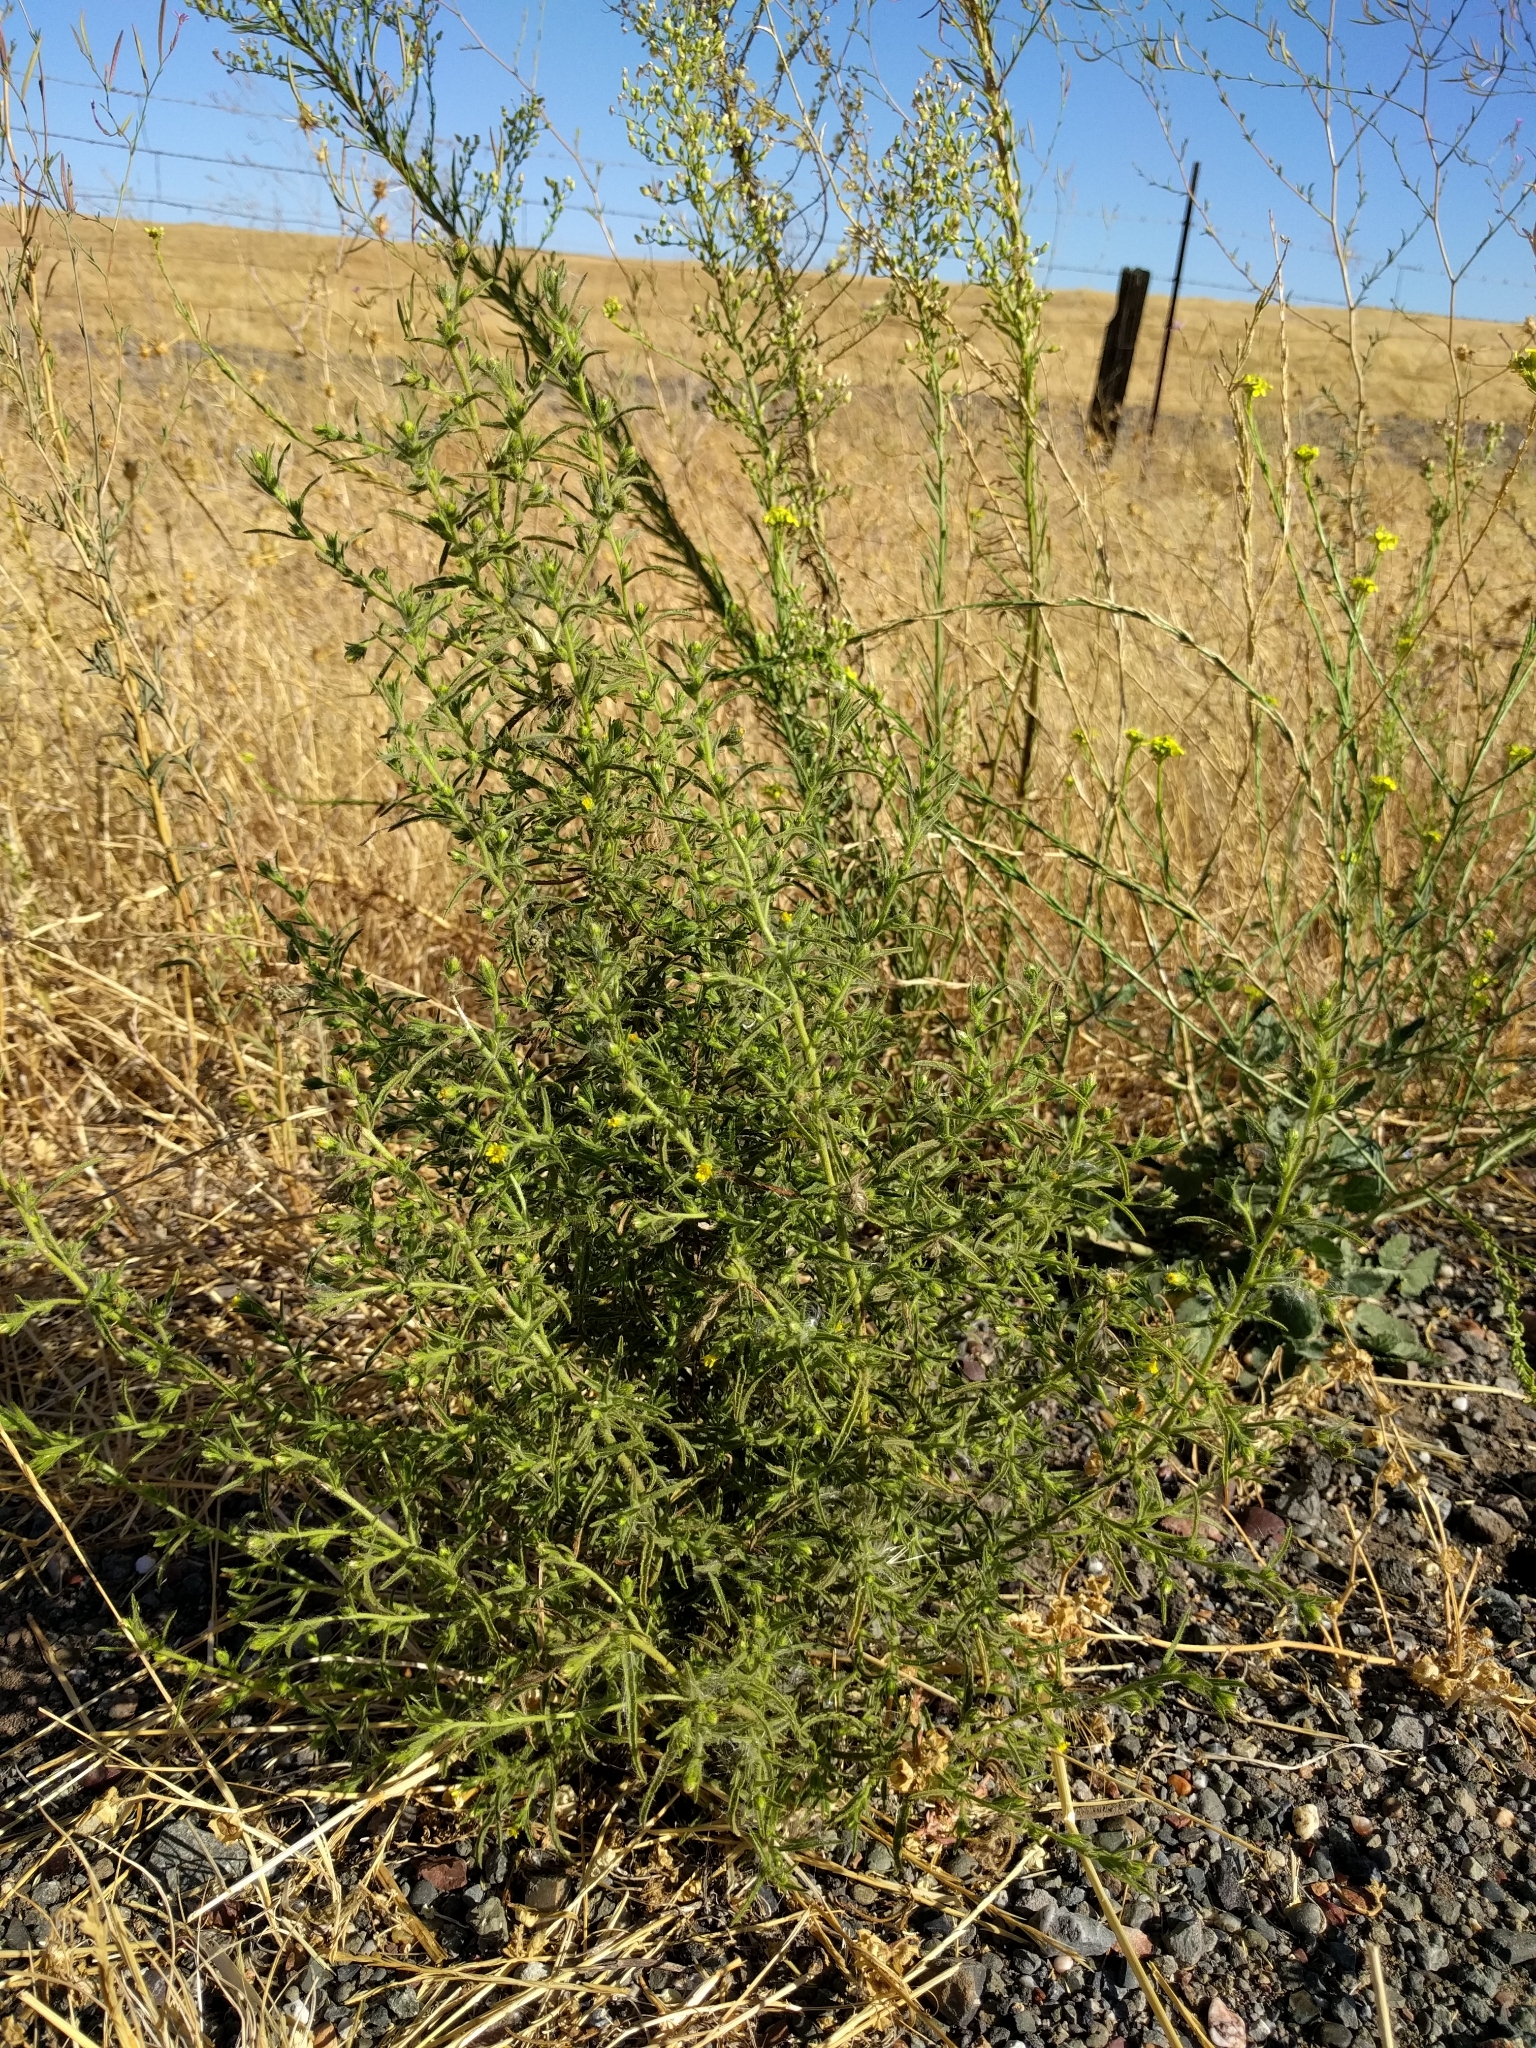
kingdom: Plantae
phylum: Tracheophyta
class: Magnoliopsida
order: Asterales
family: Asteraceae
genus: Dittrichia
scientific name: Dittrichia graveolens
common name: Stinking fleabane
